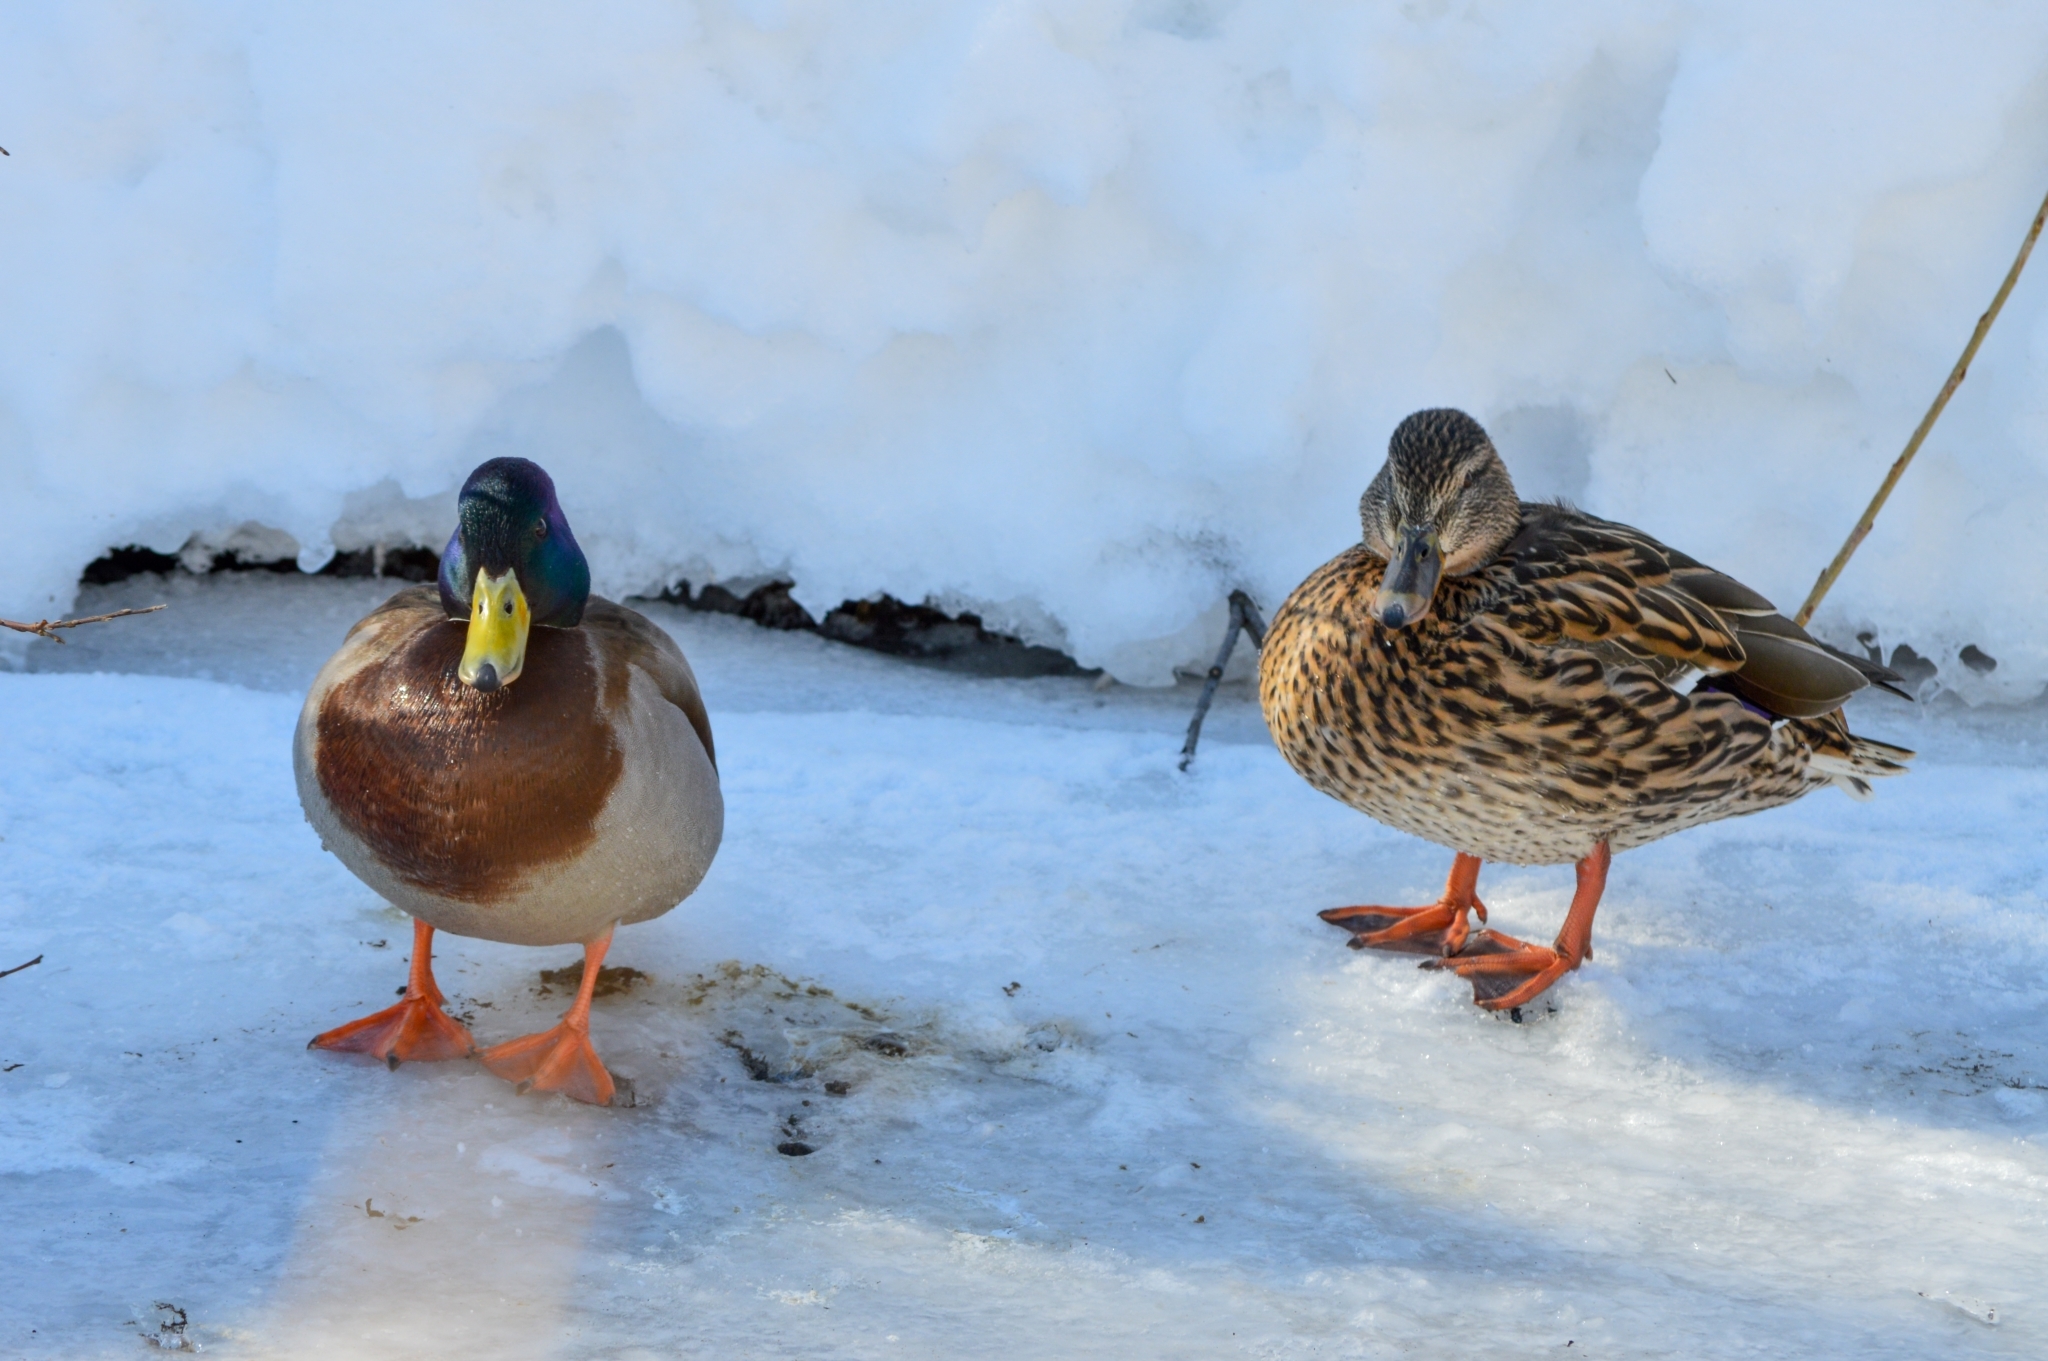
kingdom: Animalia
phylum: Chordata
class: Aves
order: Anseriformes
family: Anatidae
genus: Anas
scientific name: Anas platyrhynchos
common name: Mallard
